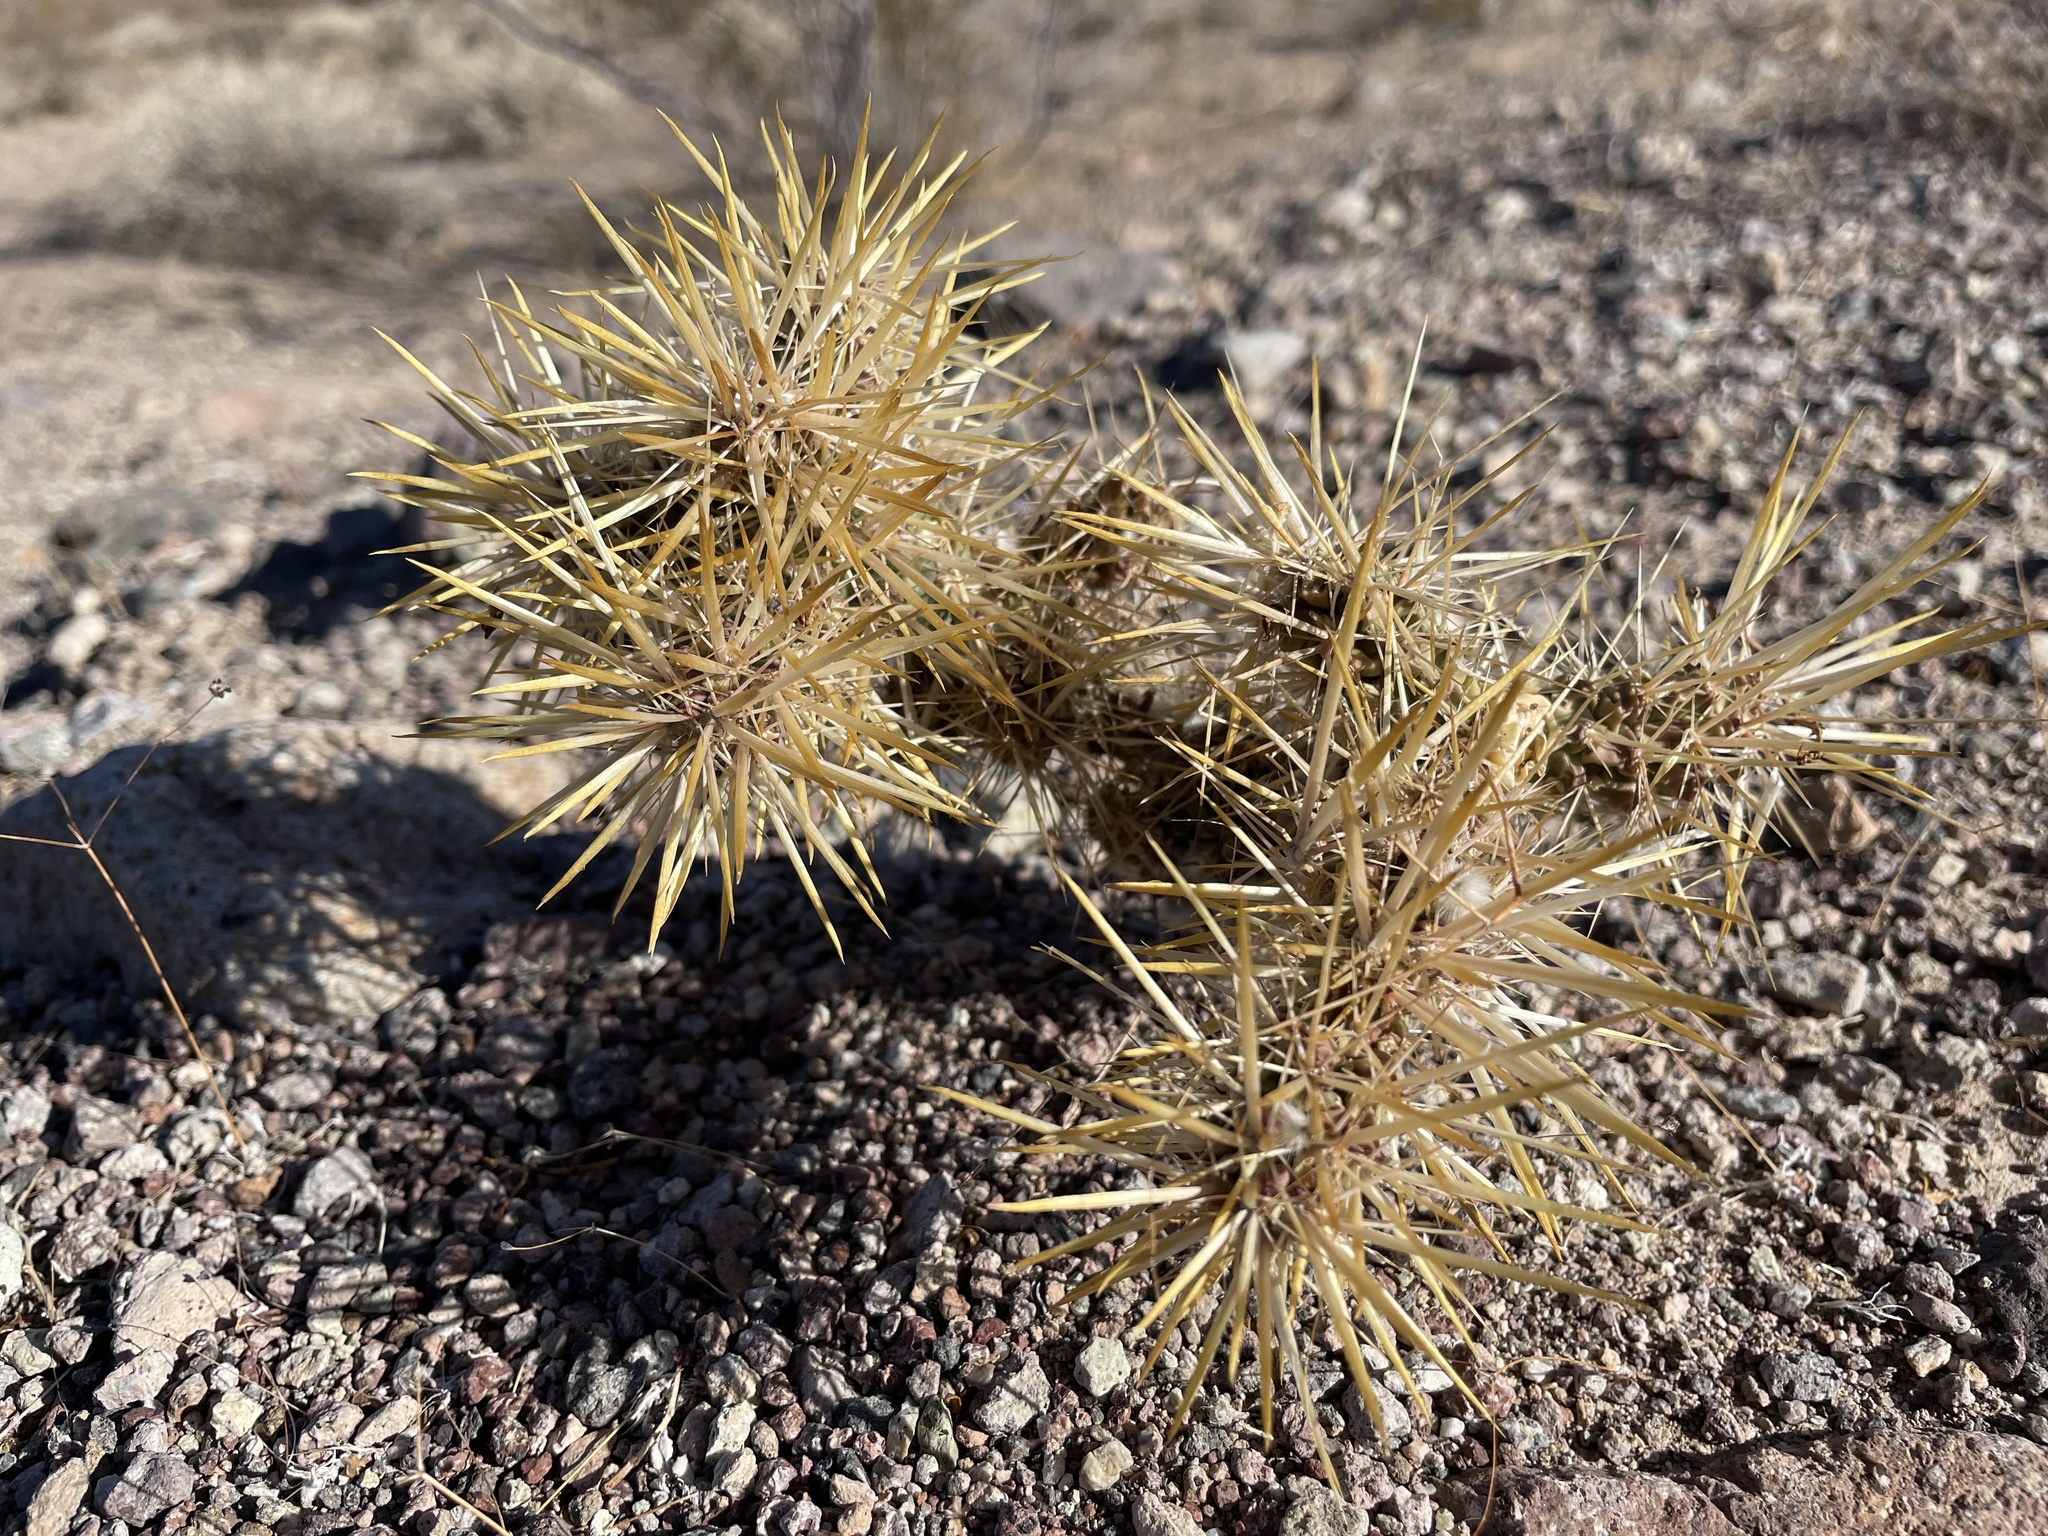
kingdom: Plantae
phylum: Tracheophyta
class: Magnoliopsida
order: Caryophyllales
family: Cactaceae
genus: Cylindropuntia
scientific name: Cylindropuntia echinocarpa
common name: Ground cholla
